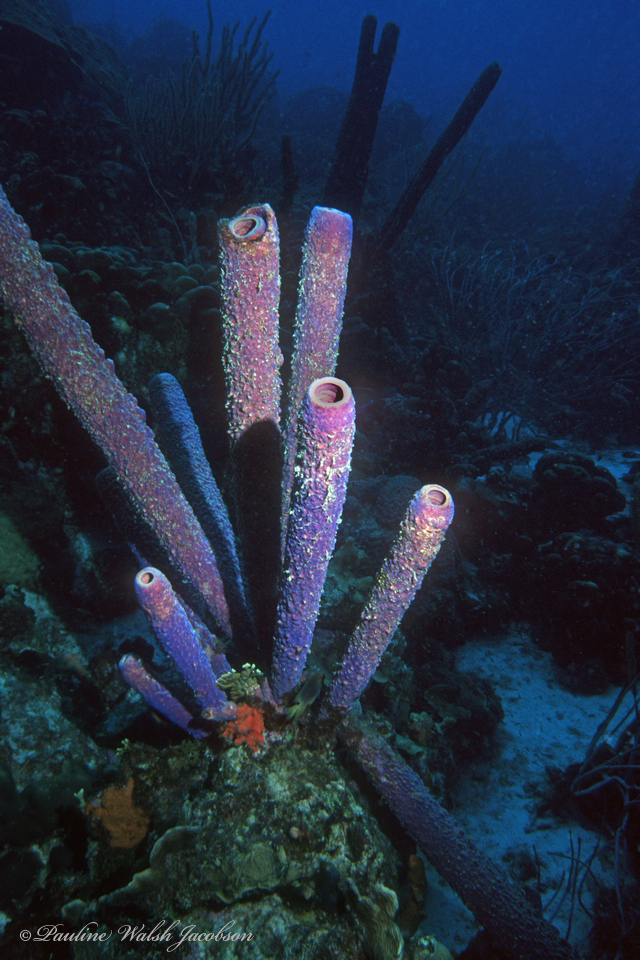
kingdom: Animalia
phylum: Porifera
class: Demospongiae
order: Verongiida
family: Aplysinidae
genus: Aplysina
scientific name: Aplysina archeri
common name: Stove-pipe sponge
